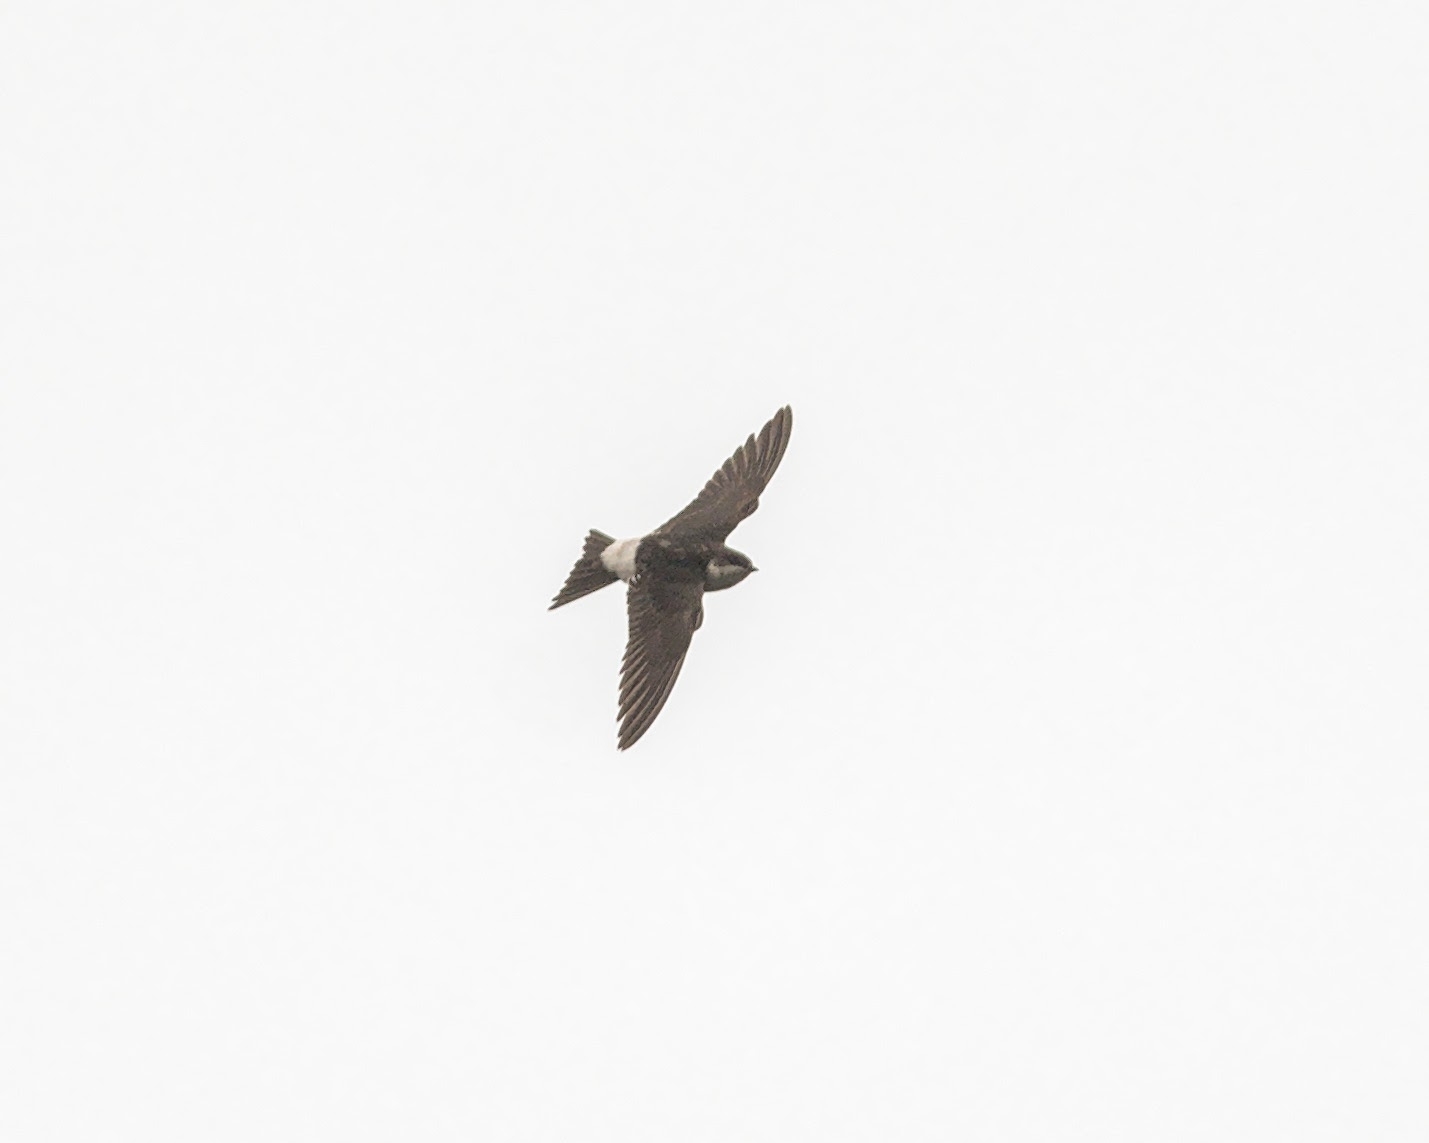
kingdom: Animalia
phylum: Chordata
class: Aves
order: Passeriformes
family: Hirundinidae
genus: Delichon
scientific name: Delichon urbicum
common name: Common house martin
